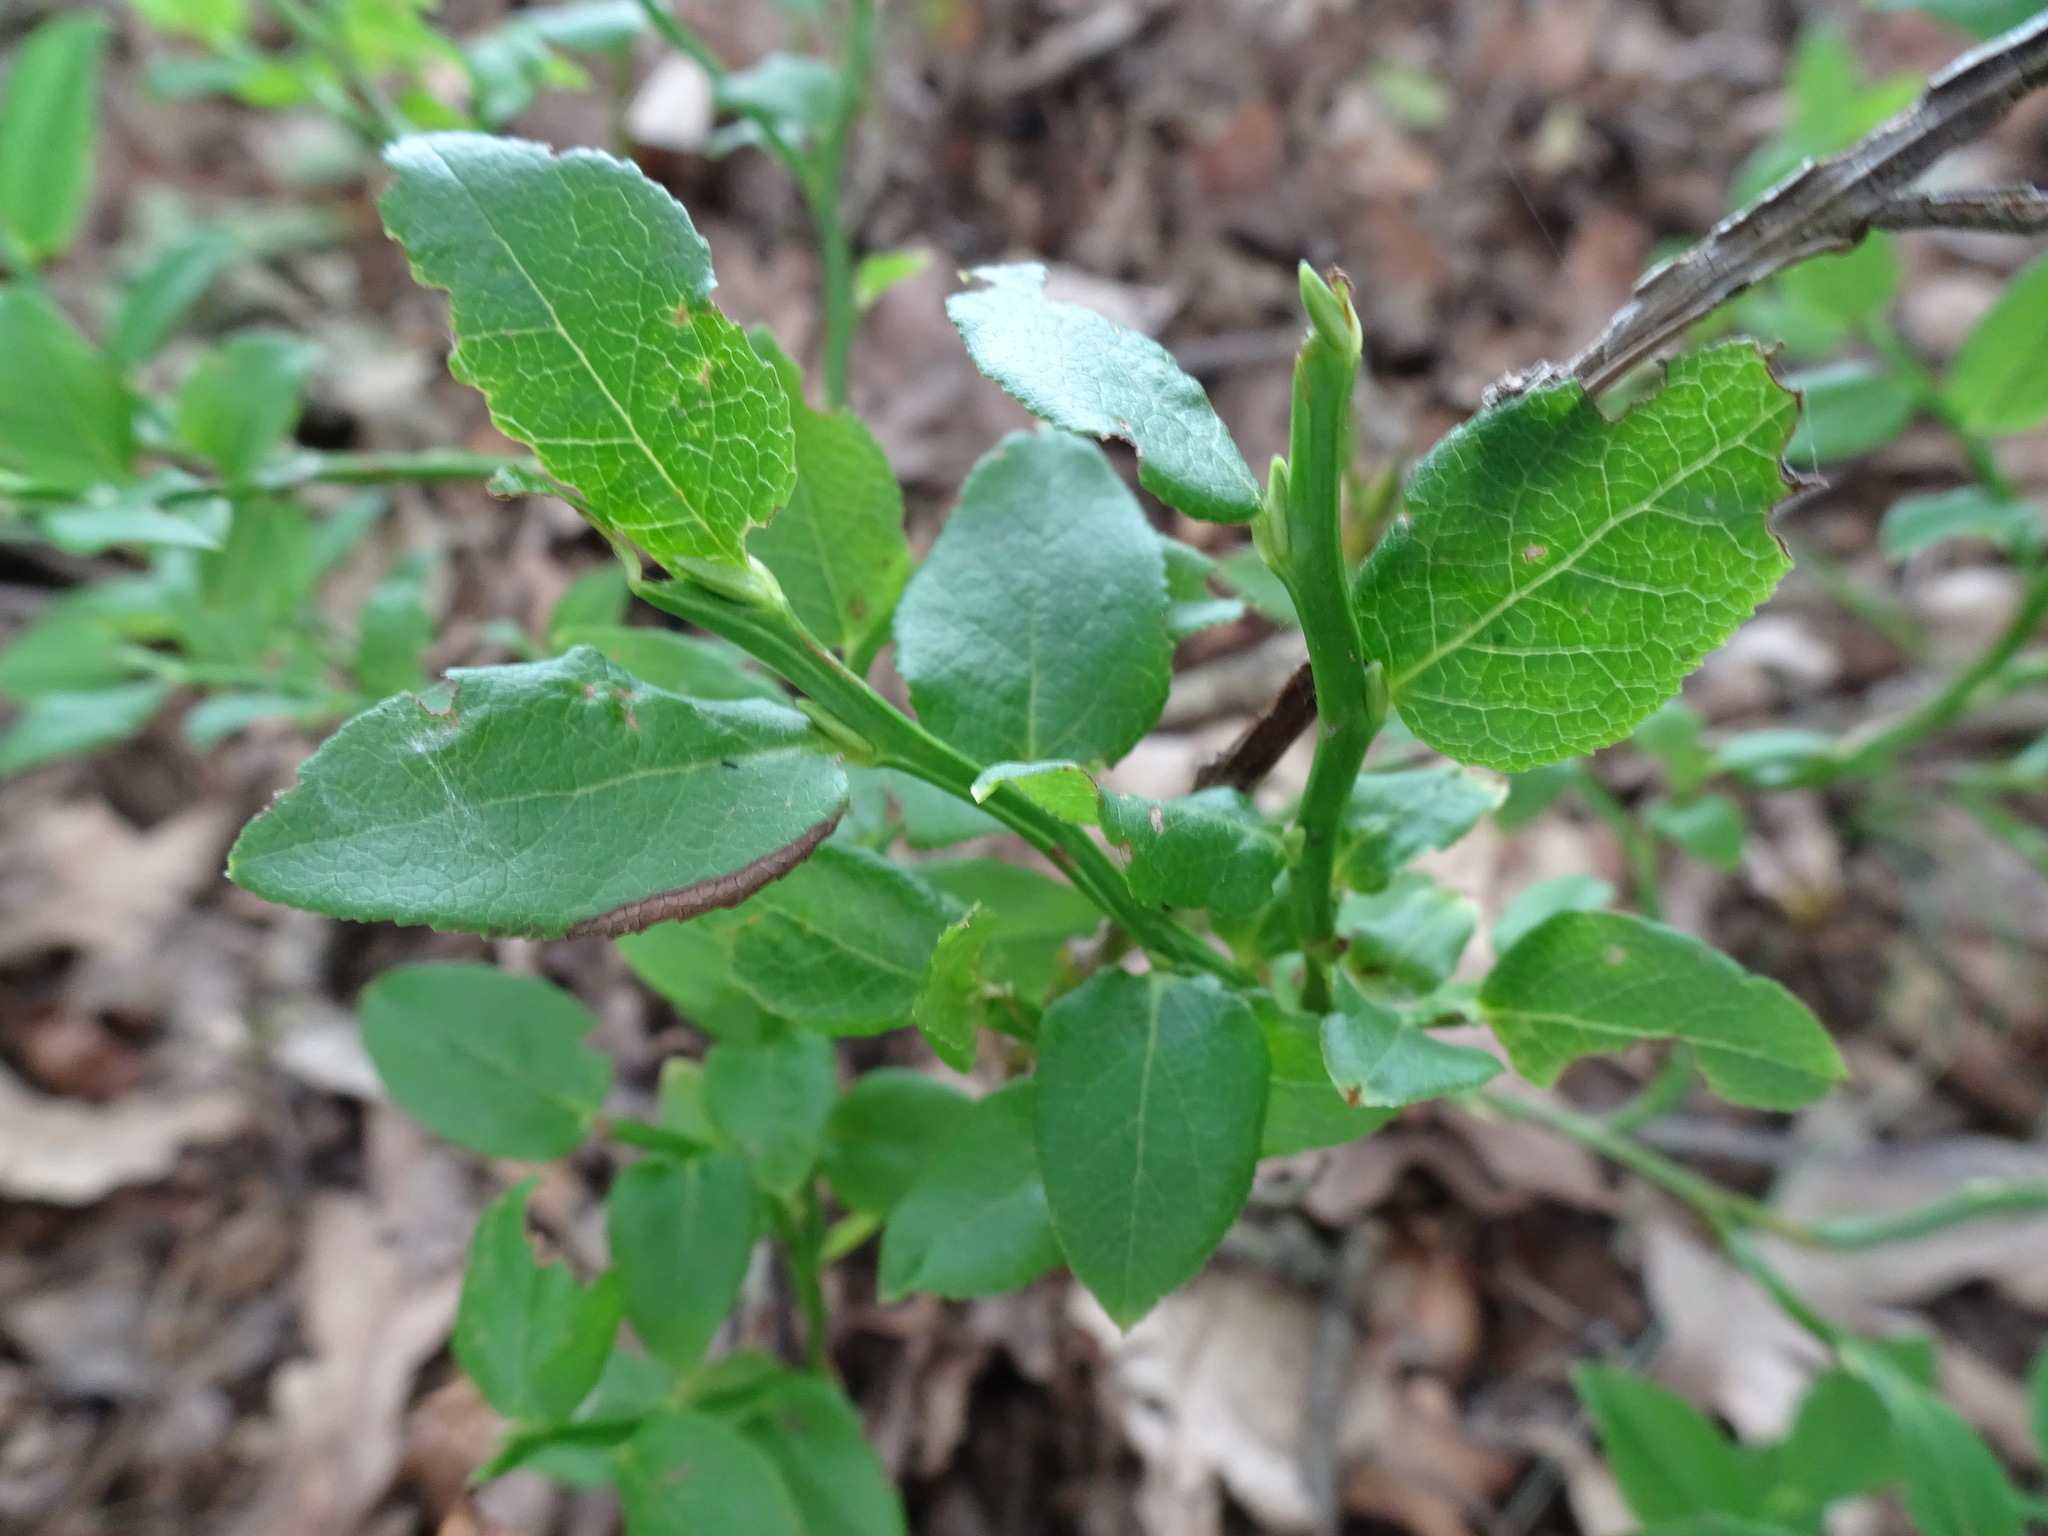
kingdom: Plantae
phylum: Tracheophyta
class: Magnoliopsida
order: Ericales
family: Ericaceae
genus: Vaccinium
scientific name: Vaccinium myrtillus
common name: Bilberry
